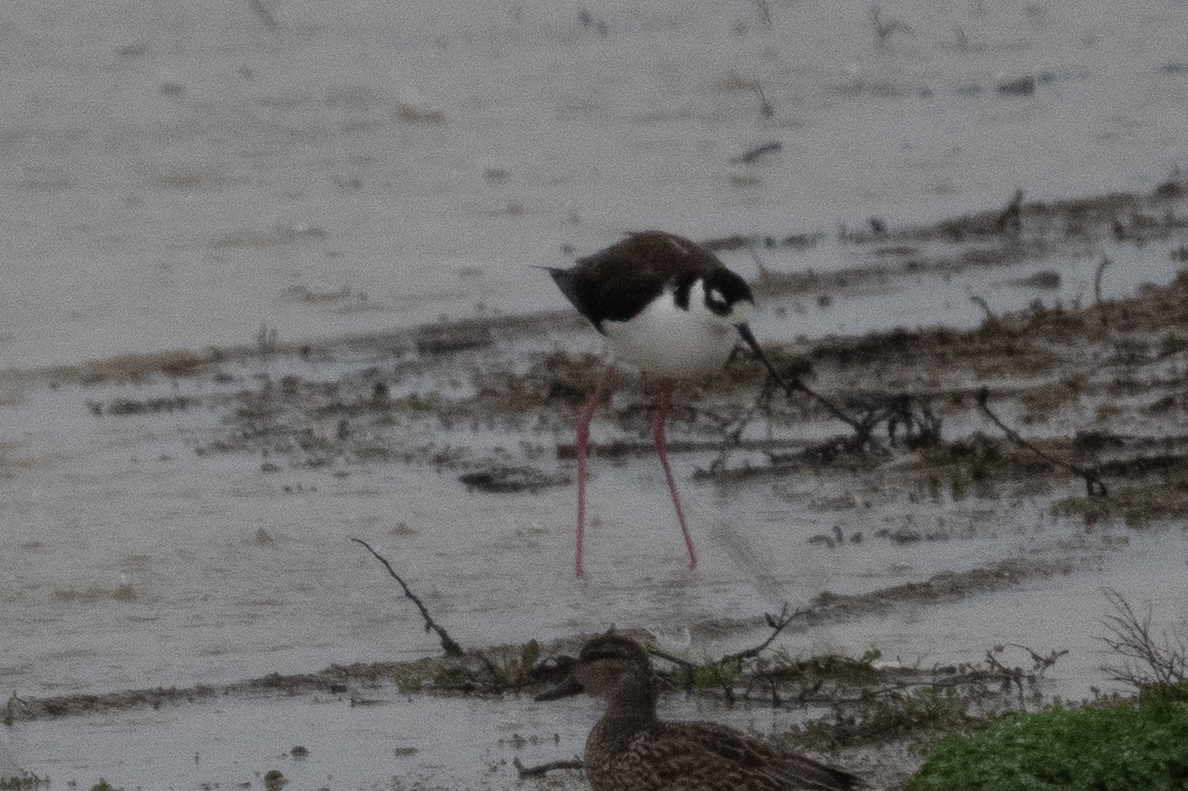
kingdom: Animalia
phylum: Chordata
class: Aves
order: Charadriiformes
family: Recurvirostridae
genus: Himantopus
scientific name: Himantopus mexicanus
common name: Black-necked stilt
